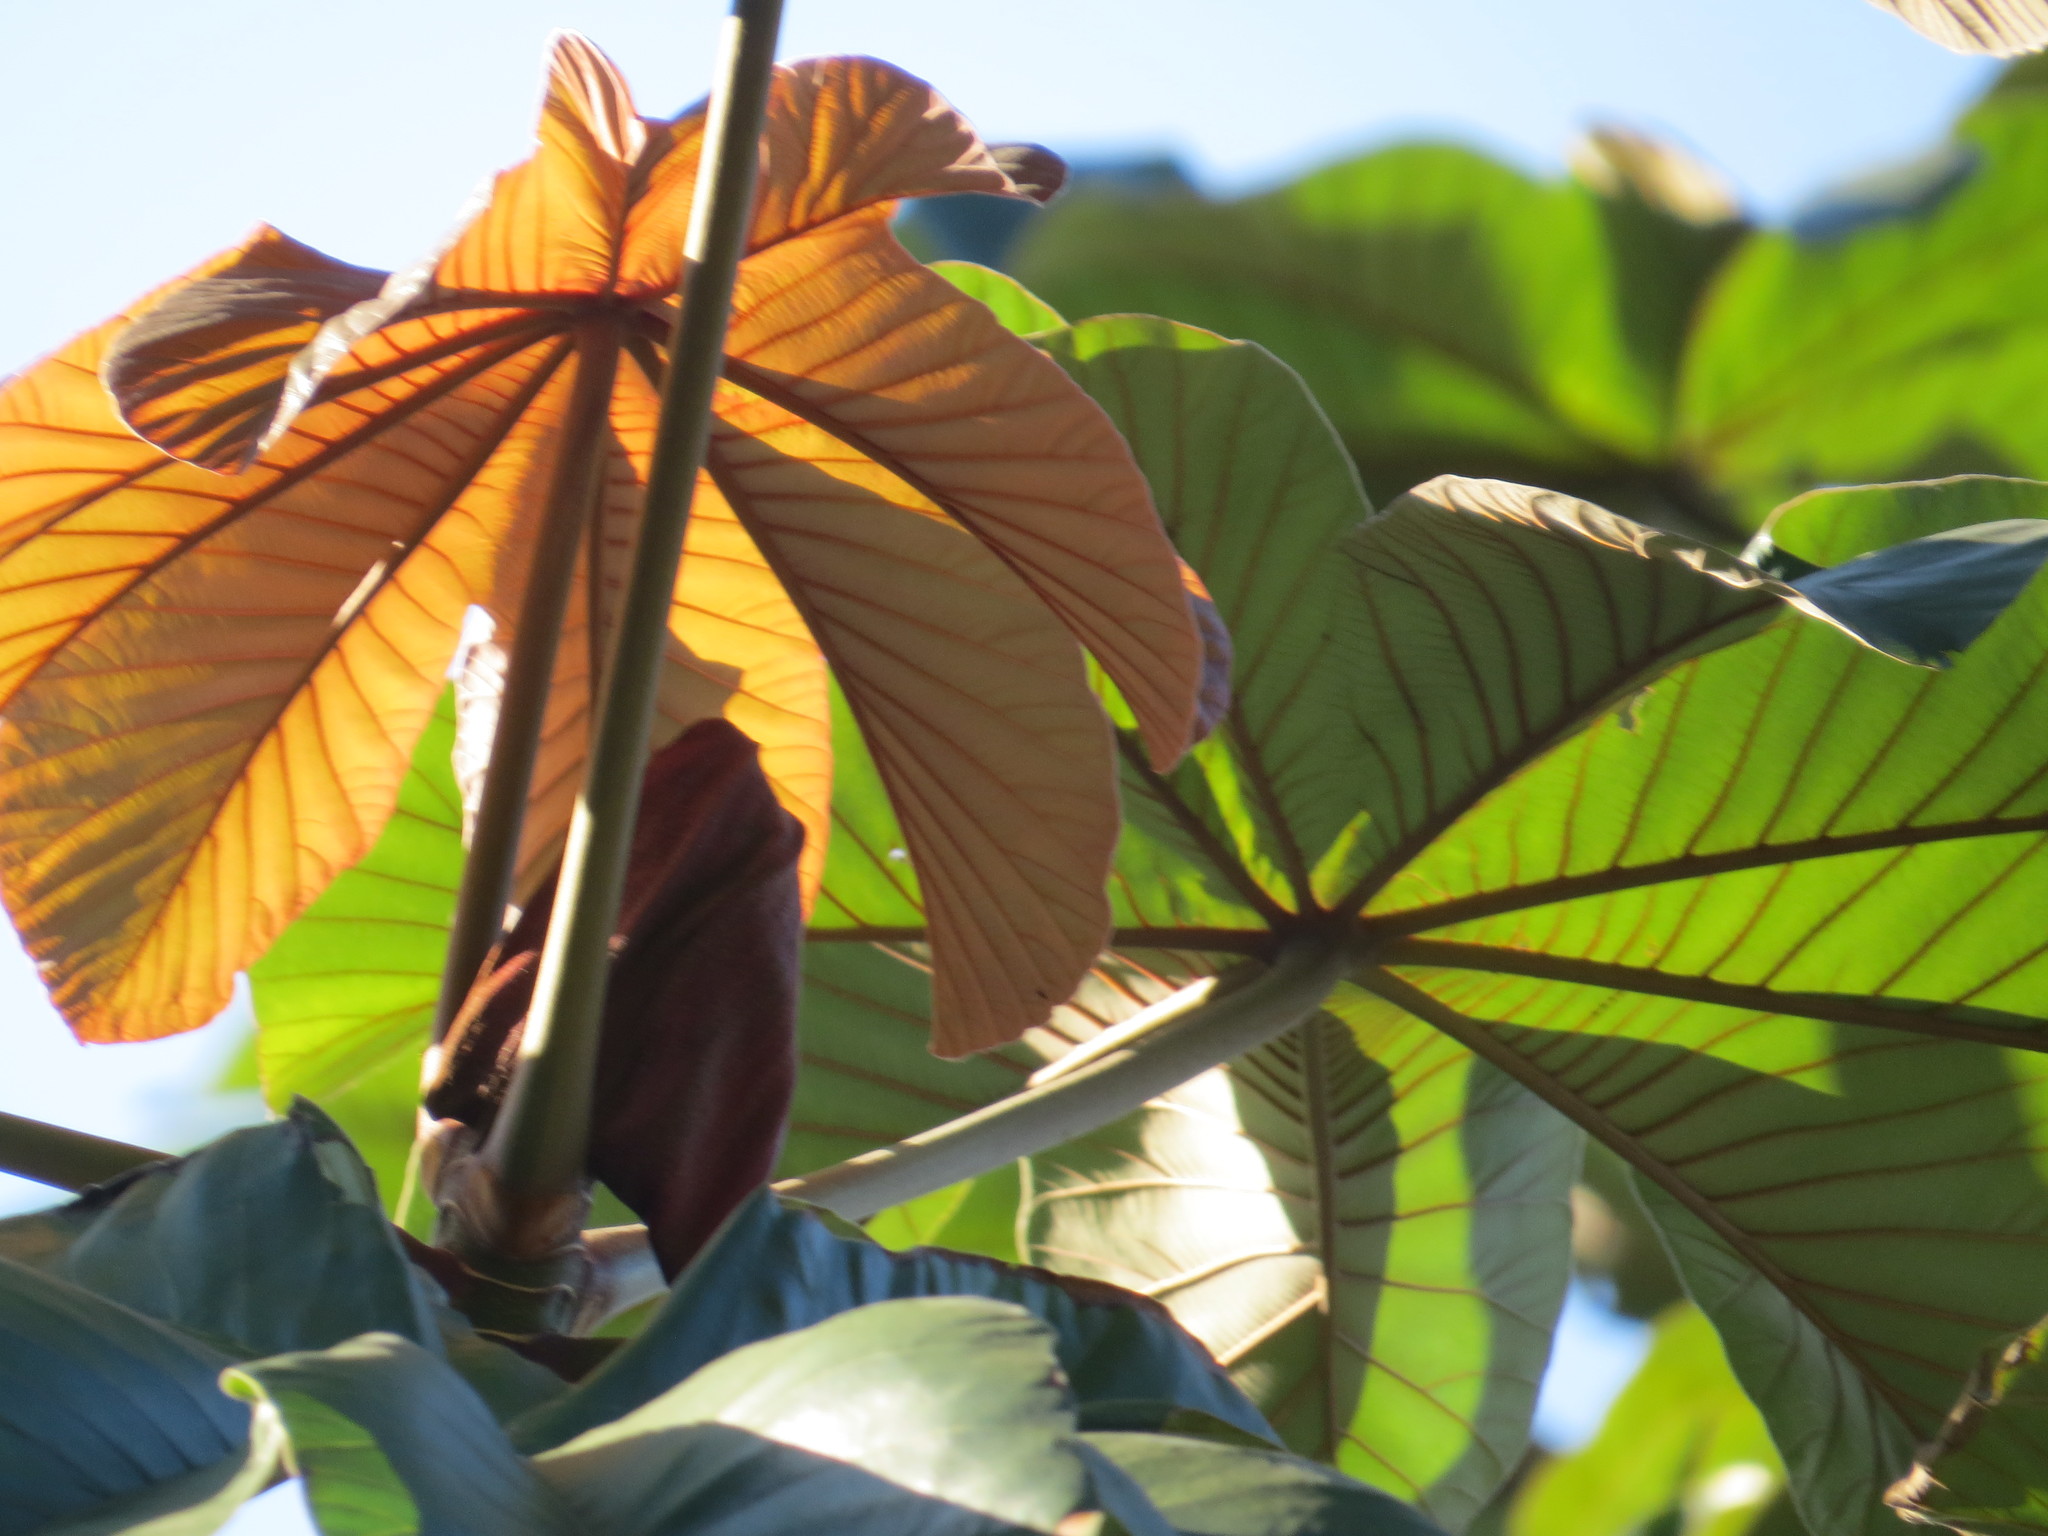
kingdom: Plantae
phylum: Tracheophyta
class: Magnoliopsida
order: Rosales
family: Urticaceae
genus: Cecropia
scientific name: Cecropia glaziovii
